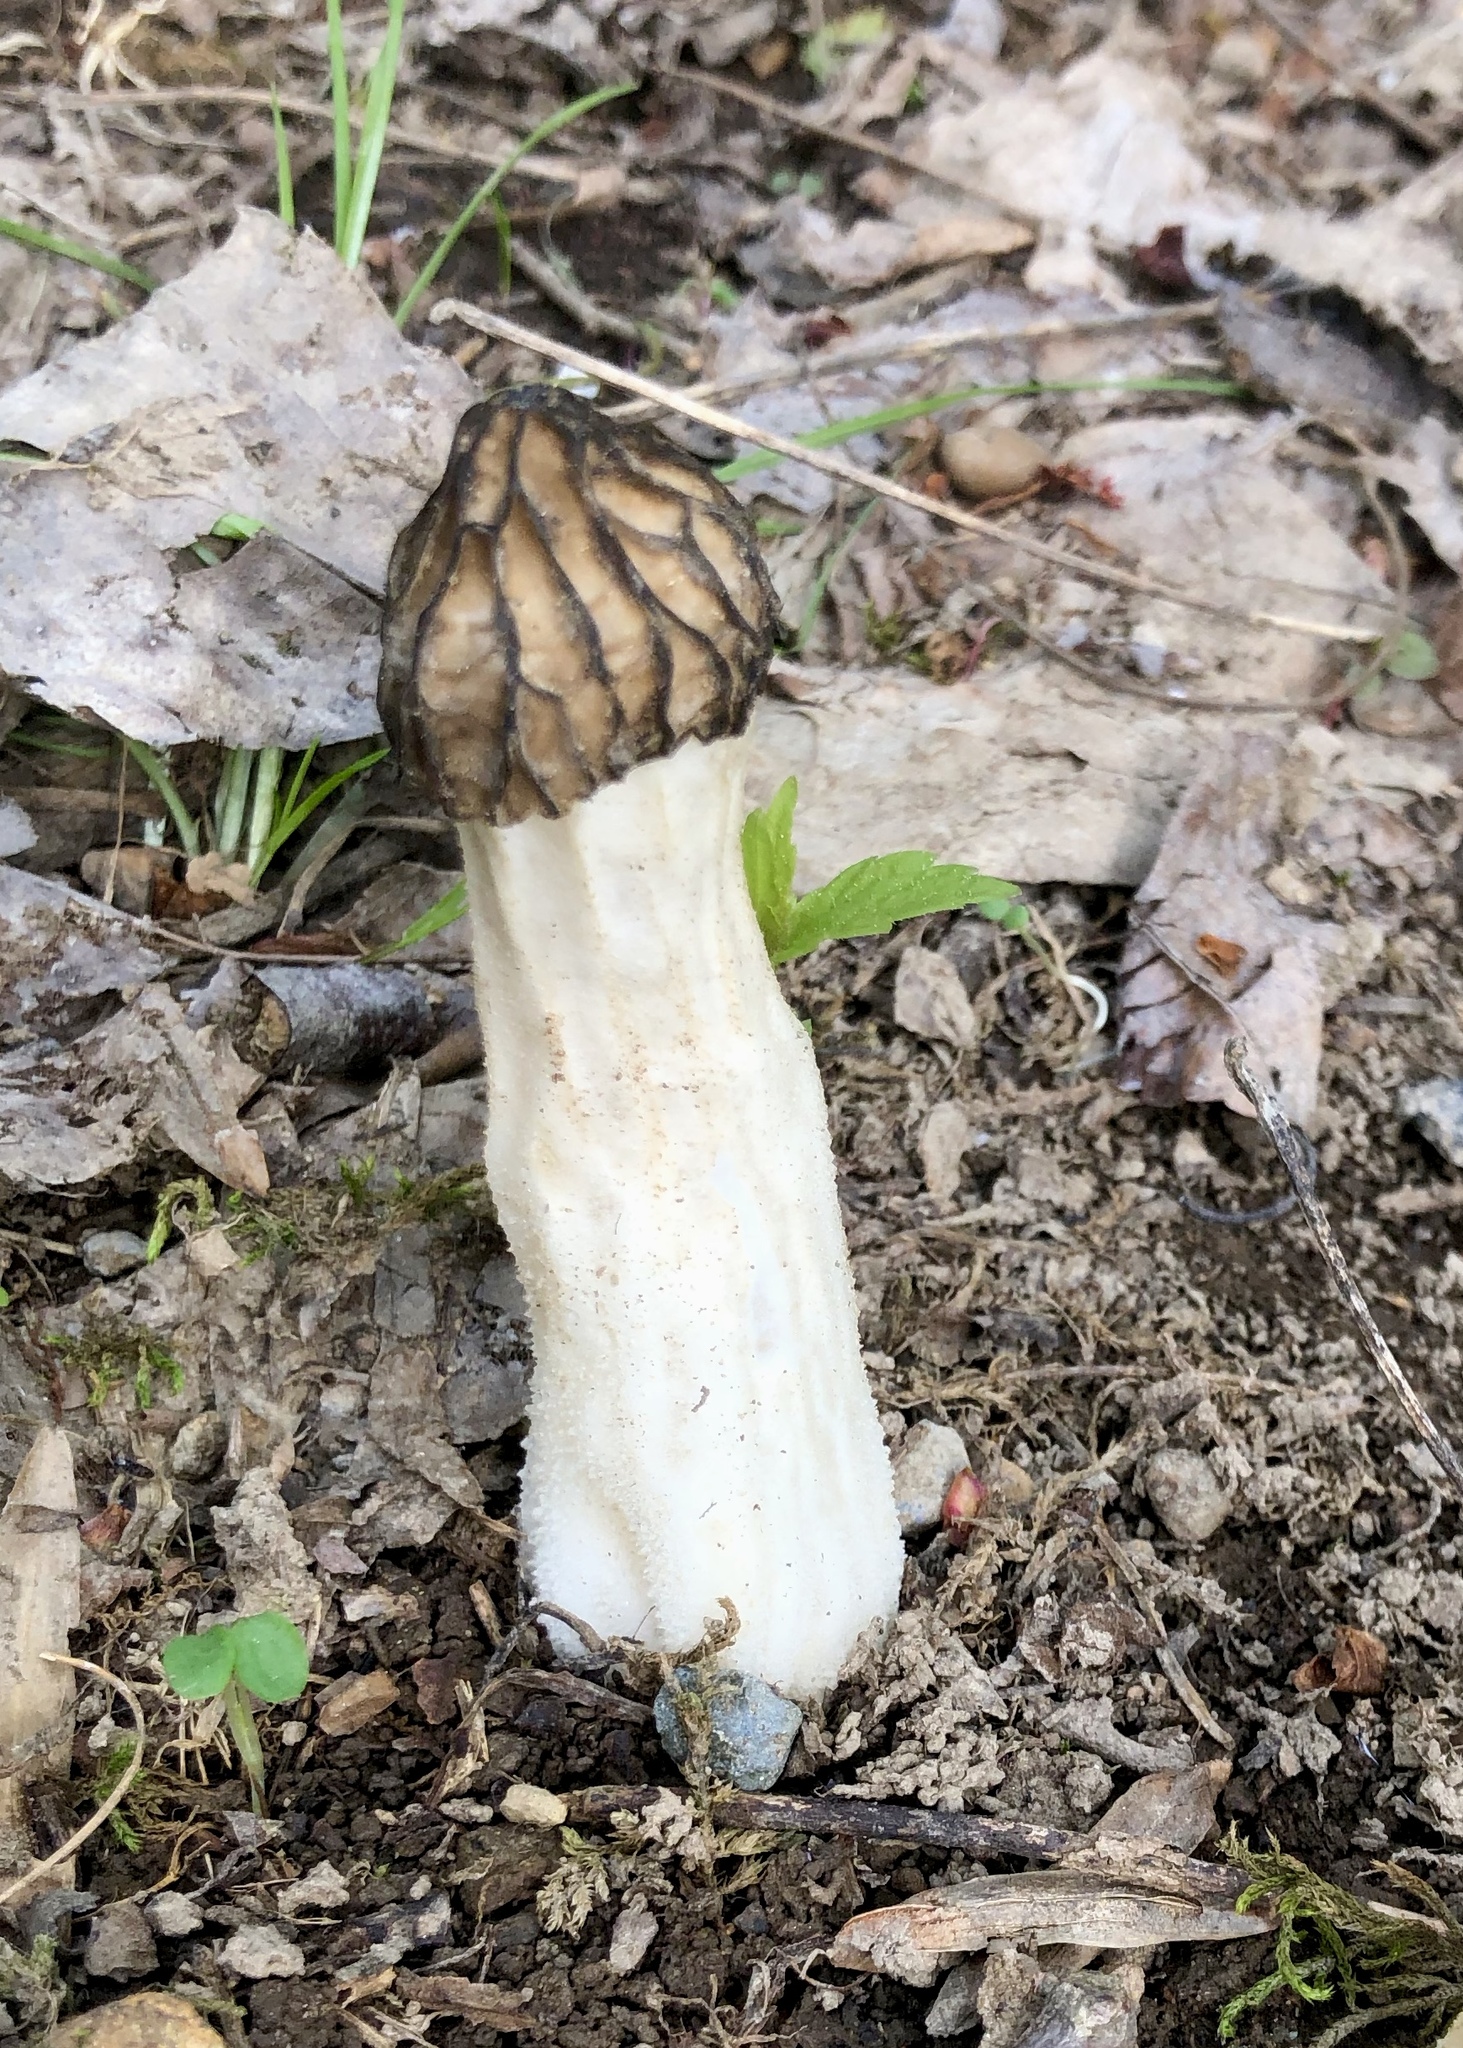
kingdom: Fungi
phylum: Ascomycota
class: Pezizomycetes
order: Pezizales
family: Morchellaceae
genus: Morchella
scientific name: Morchella punctipes
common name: Half-free morel
